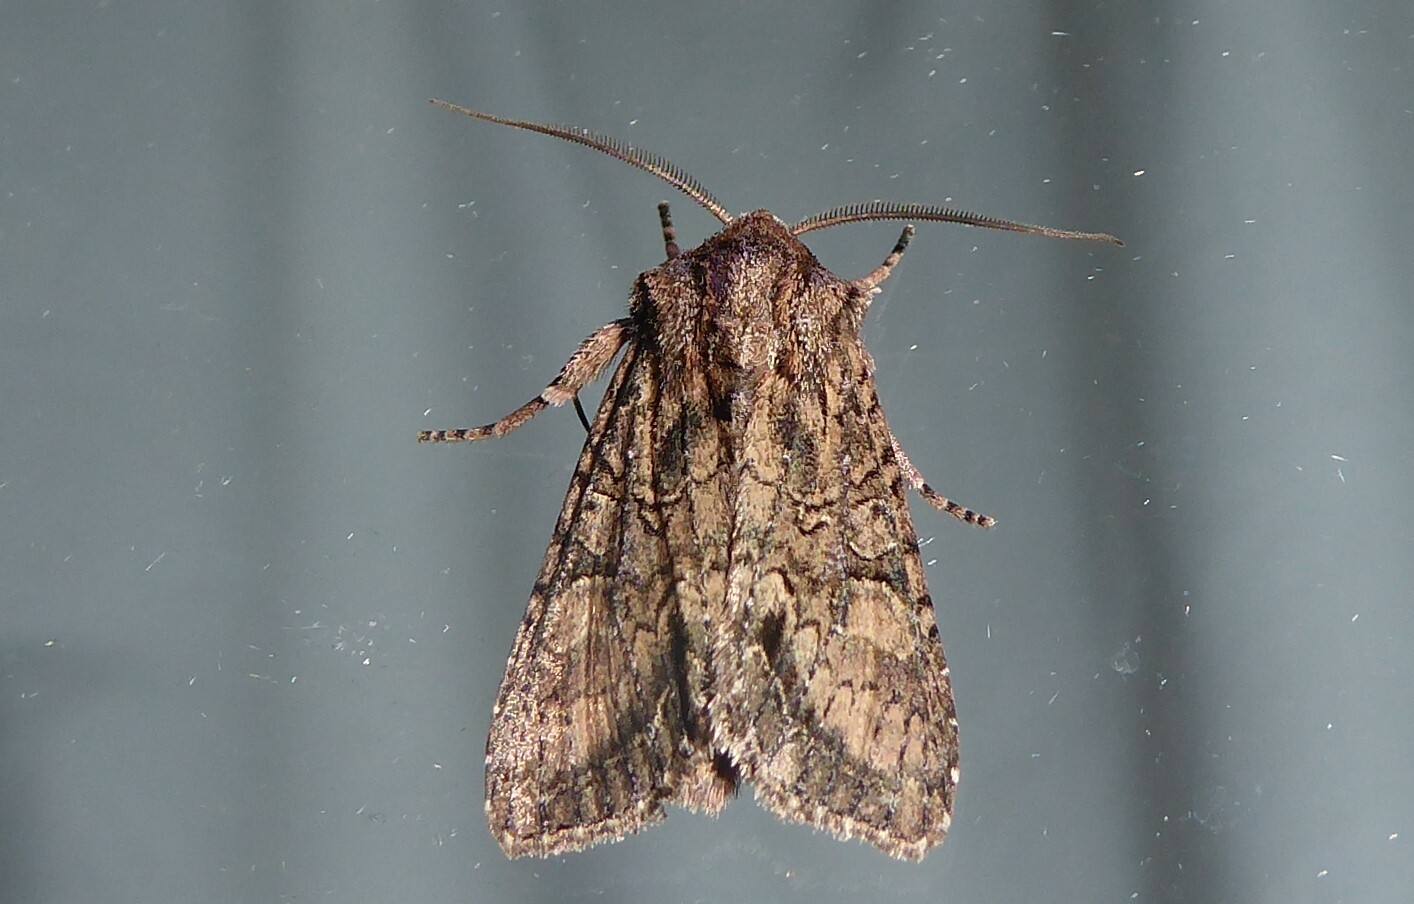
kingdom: Animalia
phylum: Arthropoda
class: Insecta
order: Lepidoptera
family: Noctuidae
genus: Ichneutica
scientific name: Ichneutica mutans
